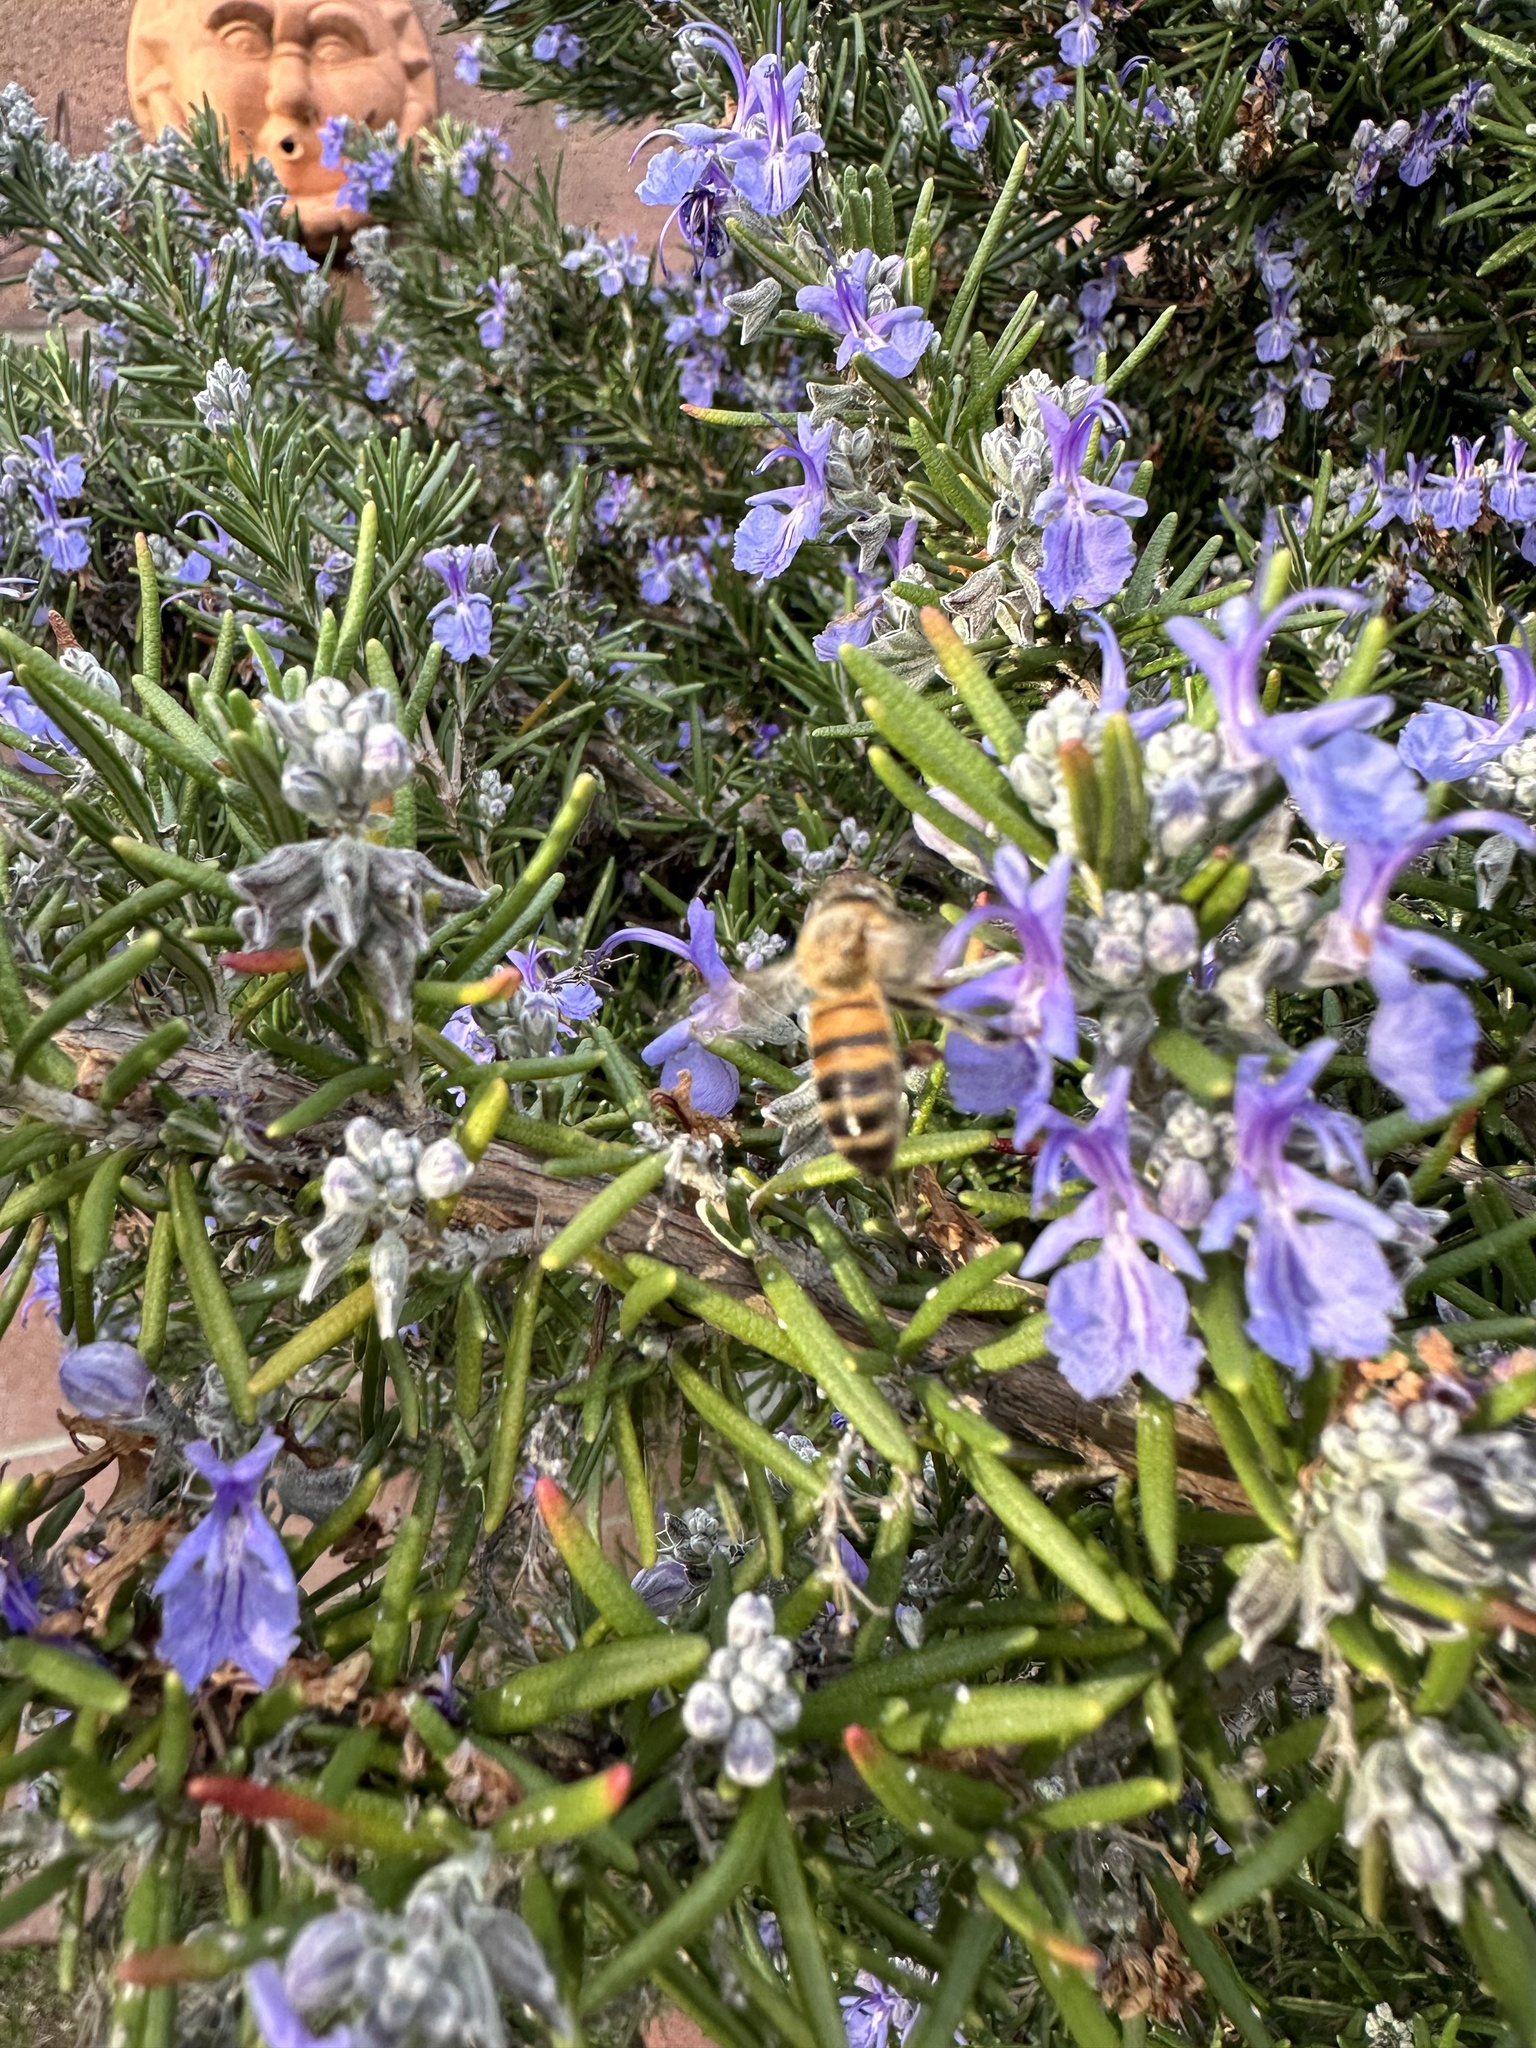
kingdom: Animalia
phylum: Arthropoda
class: Insecta
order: Hymenoptera
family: Apidae
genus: Apis
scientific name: Apis mellifera
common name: Honey bee
